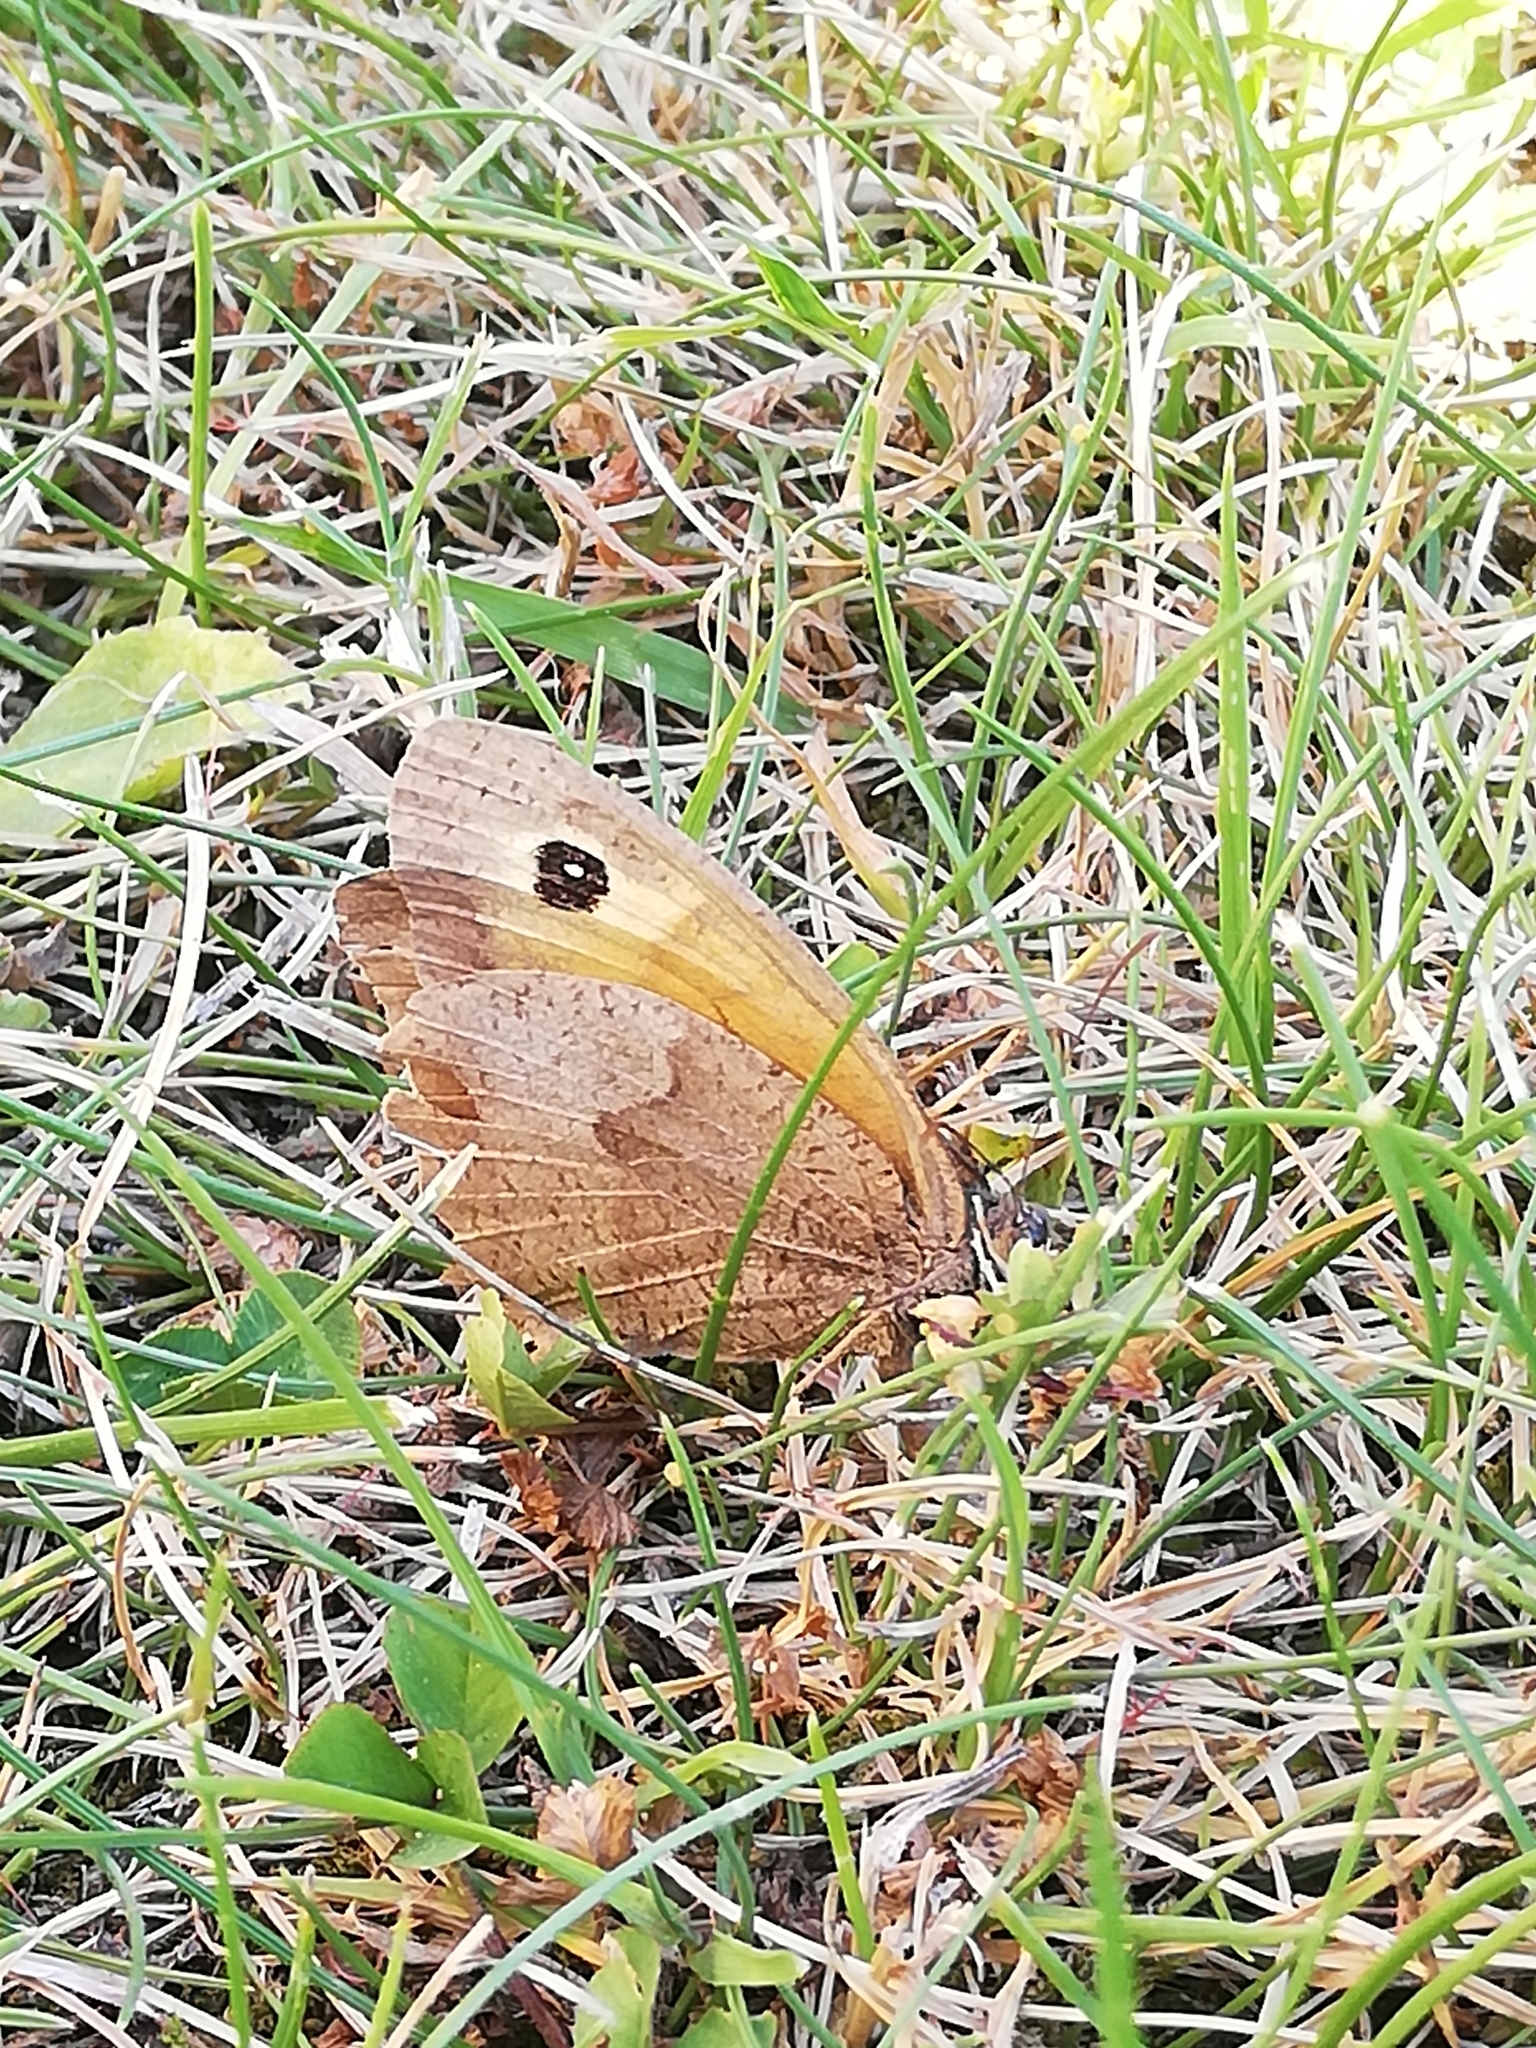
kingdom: Animalia
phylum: Arthropoda
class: Insecta
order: Lepidoptera
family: Nymphalidae
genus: Maniola
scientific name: Maniola jurtina
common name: Meadow brown
